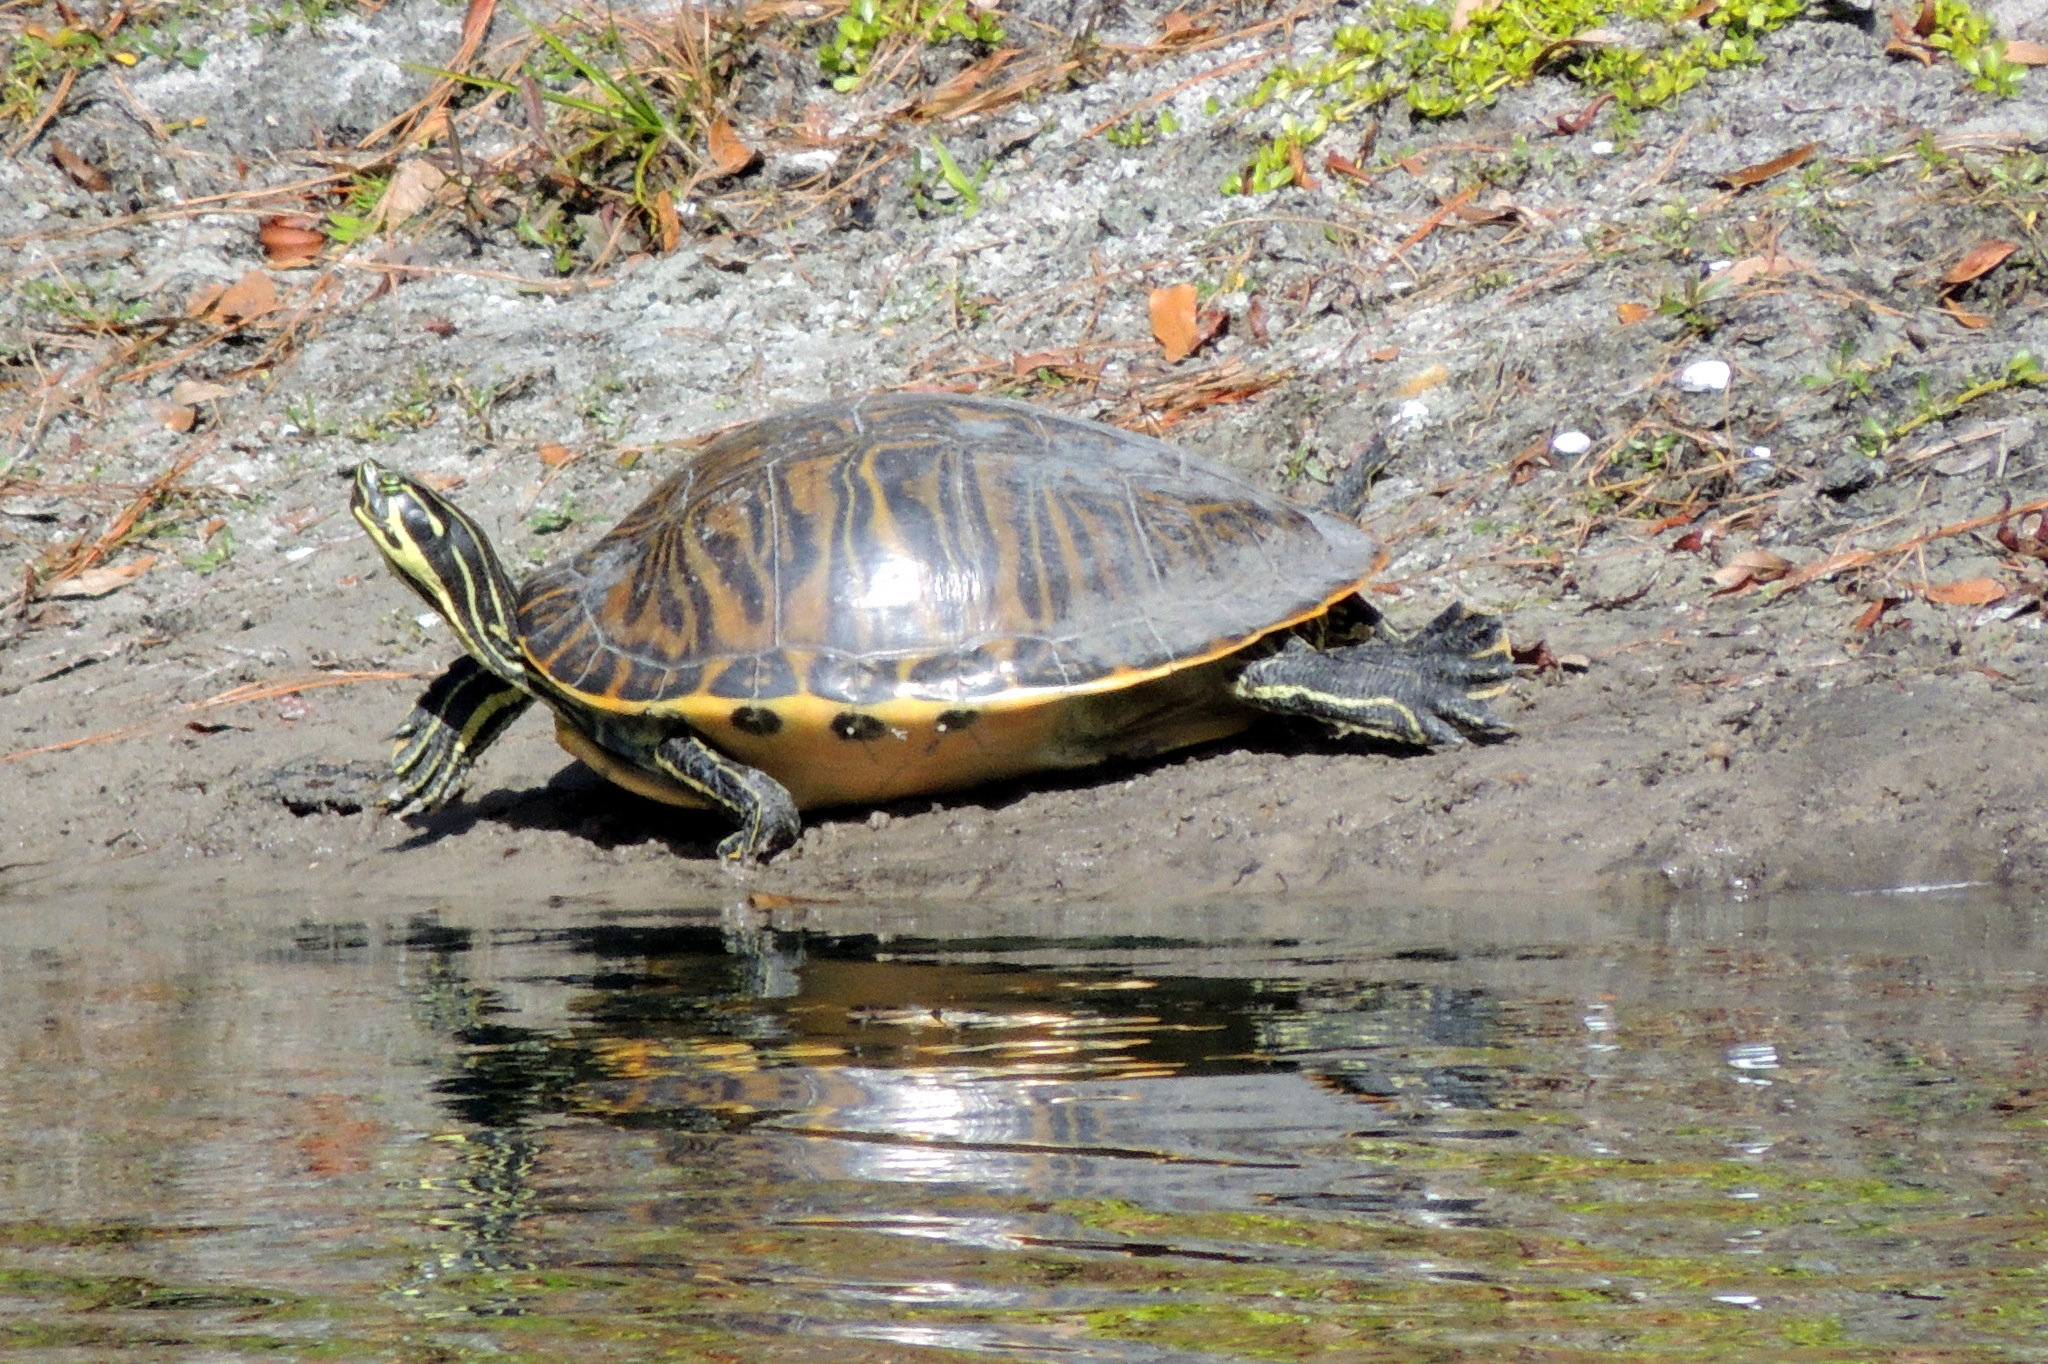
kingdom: Animalia
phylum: Chordata
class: Testudines
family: Emydidae
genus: Pseudemys
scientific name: Pseudemys peninsularis
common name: Peninsula cooter
